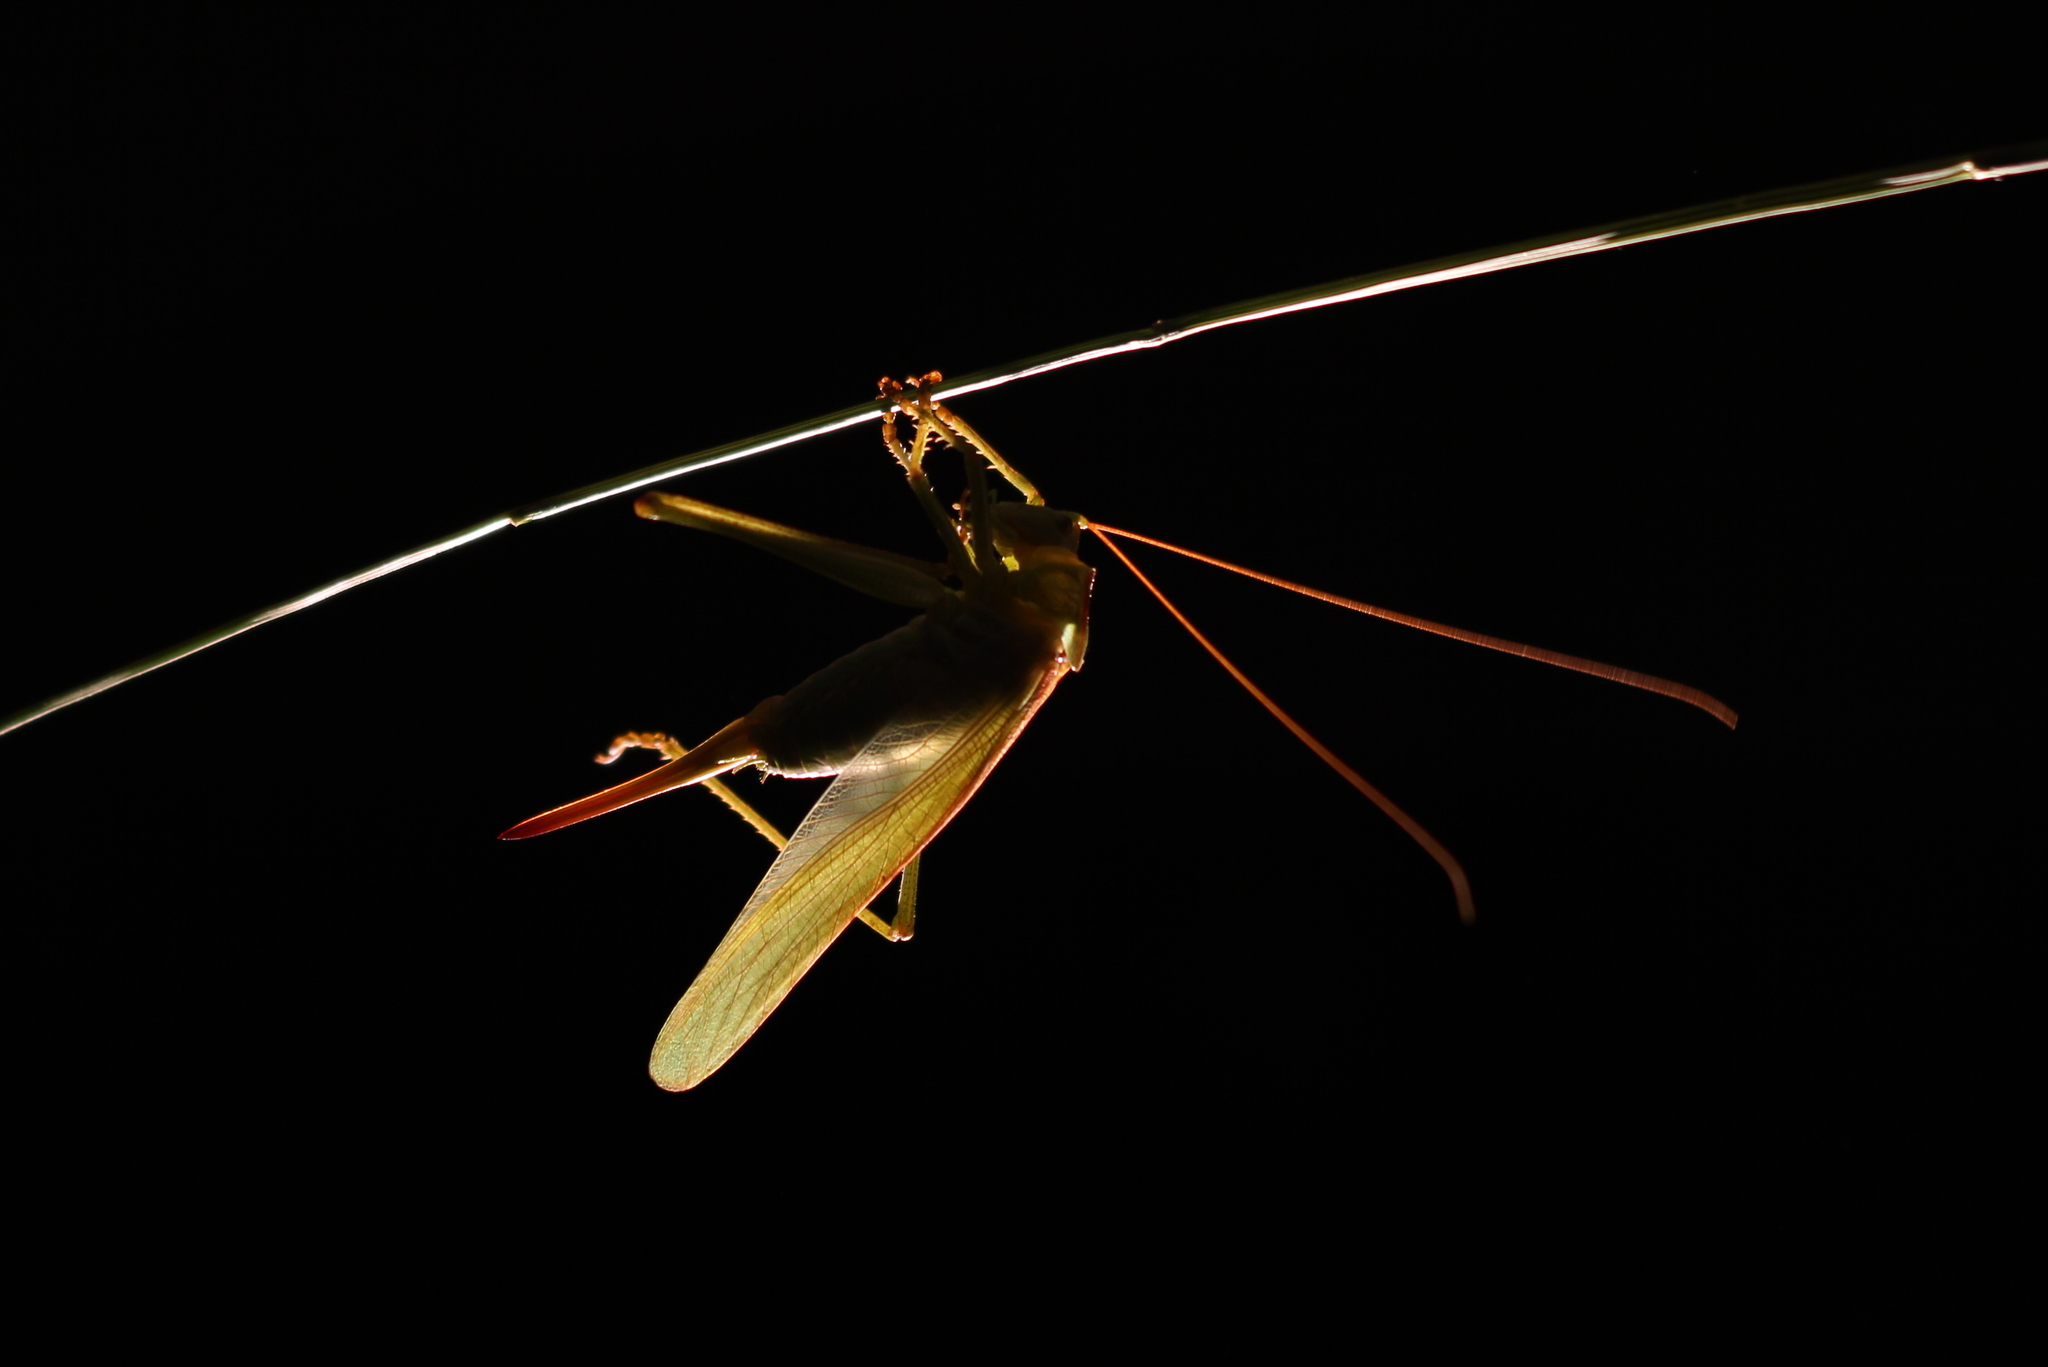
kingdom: Animalia
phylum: Arthropoda
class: Insecta
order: Orthoptera
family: Tettigoniidae
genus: Tettigonia
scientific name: Tettigonia viridissima
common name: Great green bush-cricket
